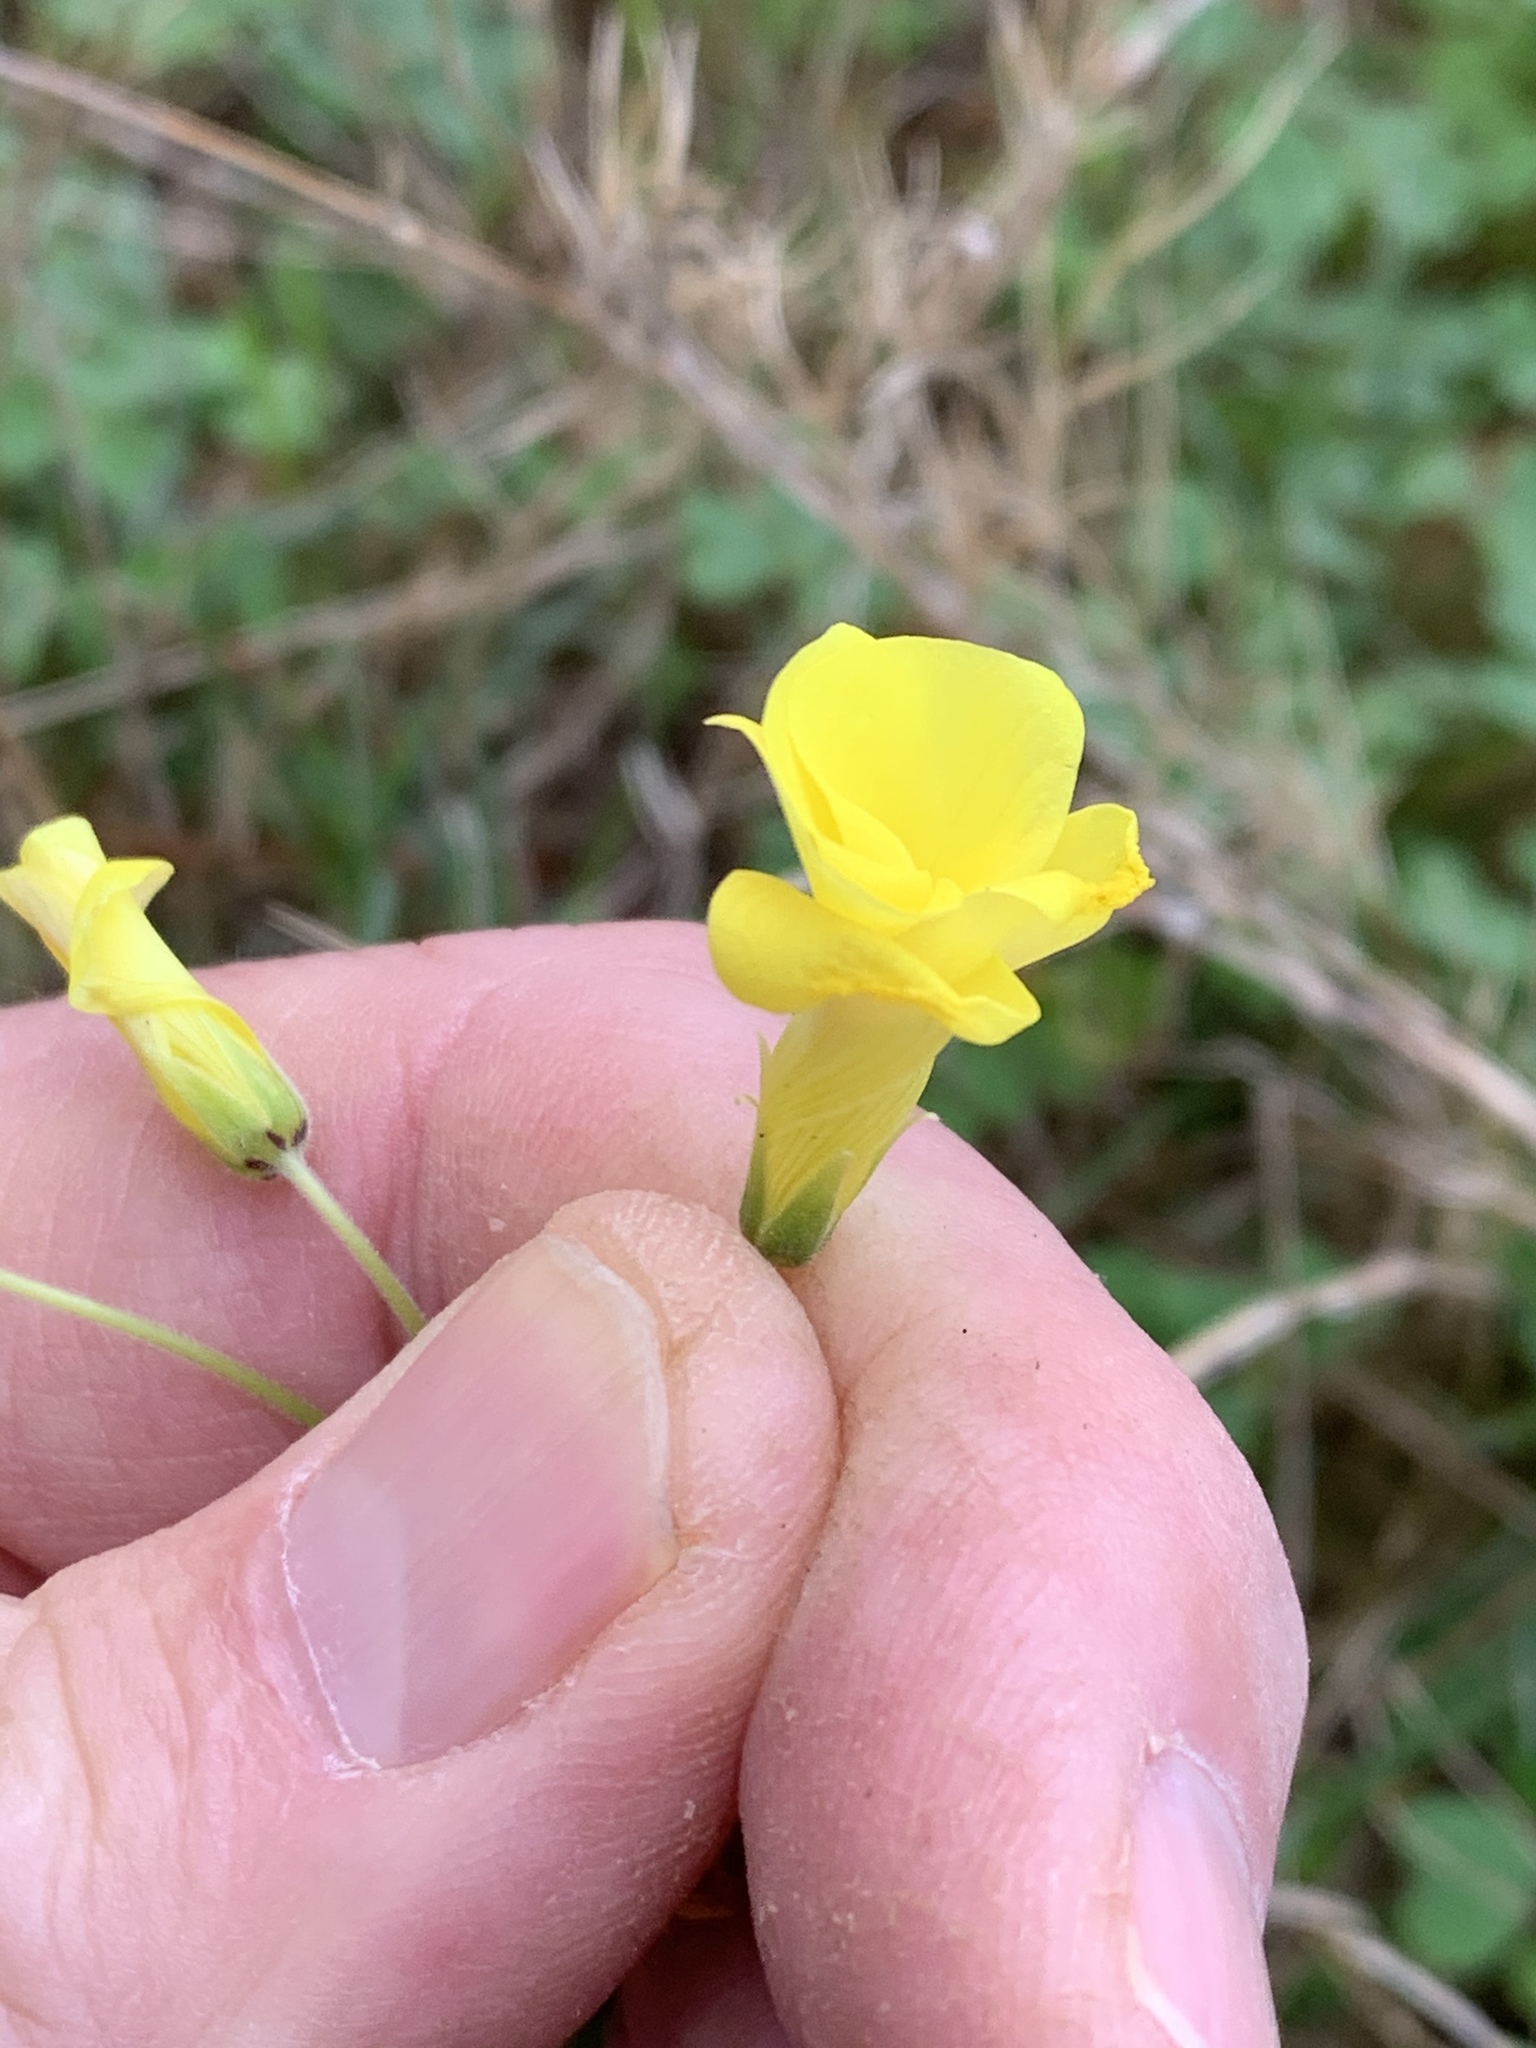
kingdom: Plantae
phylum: Tracheophyta
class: Magnoliopsida
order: Oxalidales
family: Oxalidaceae
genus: Oxalis
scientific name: Oxalis pes-caprae
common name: Bermuda-buttercup
